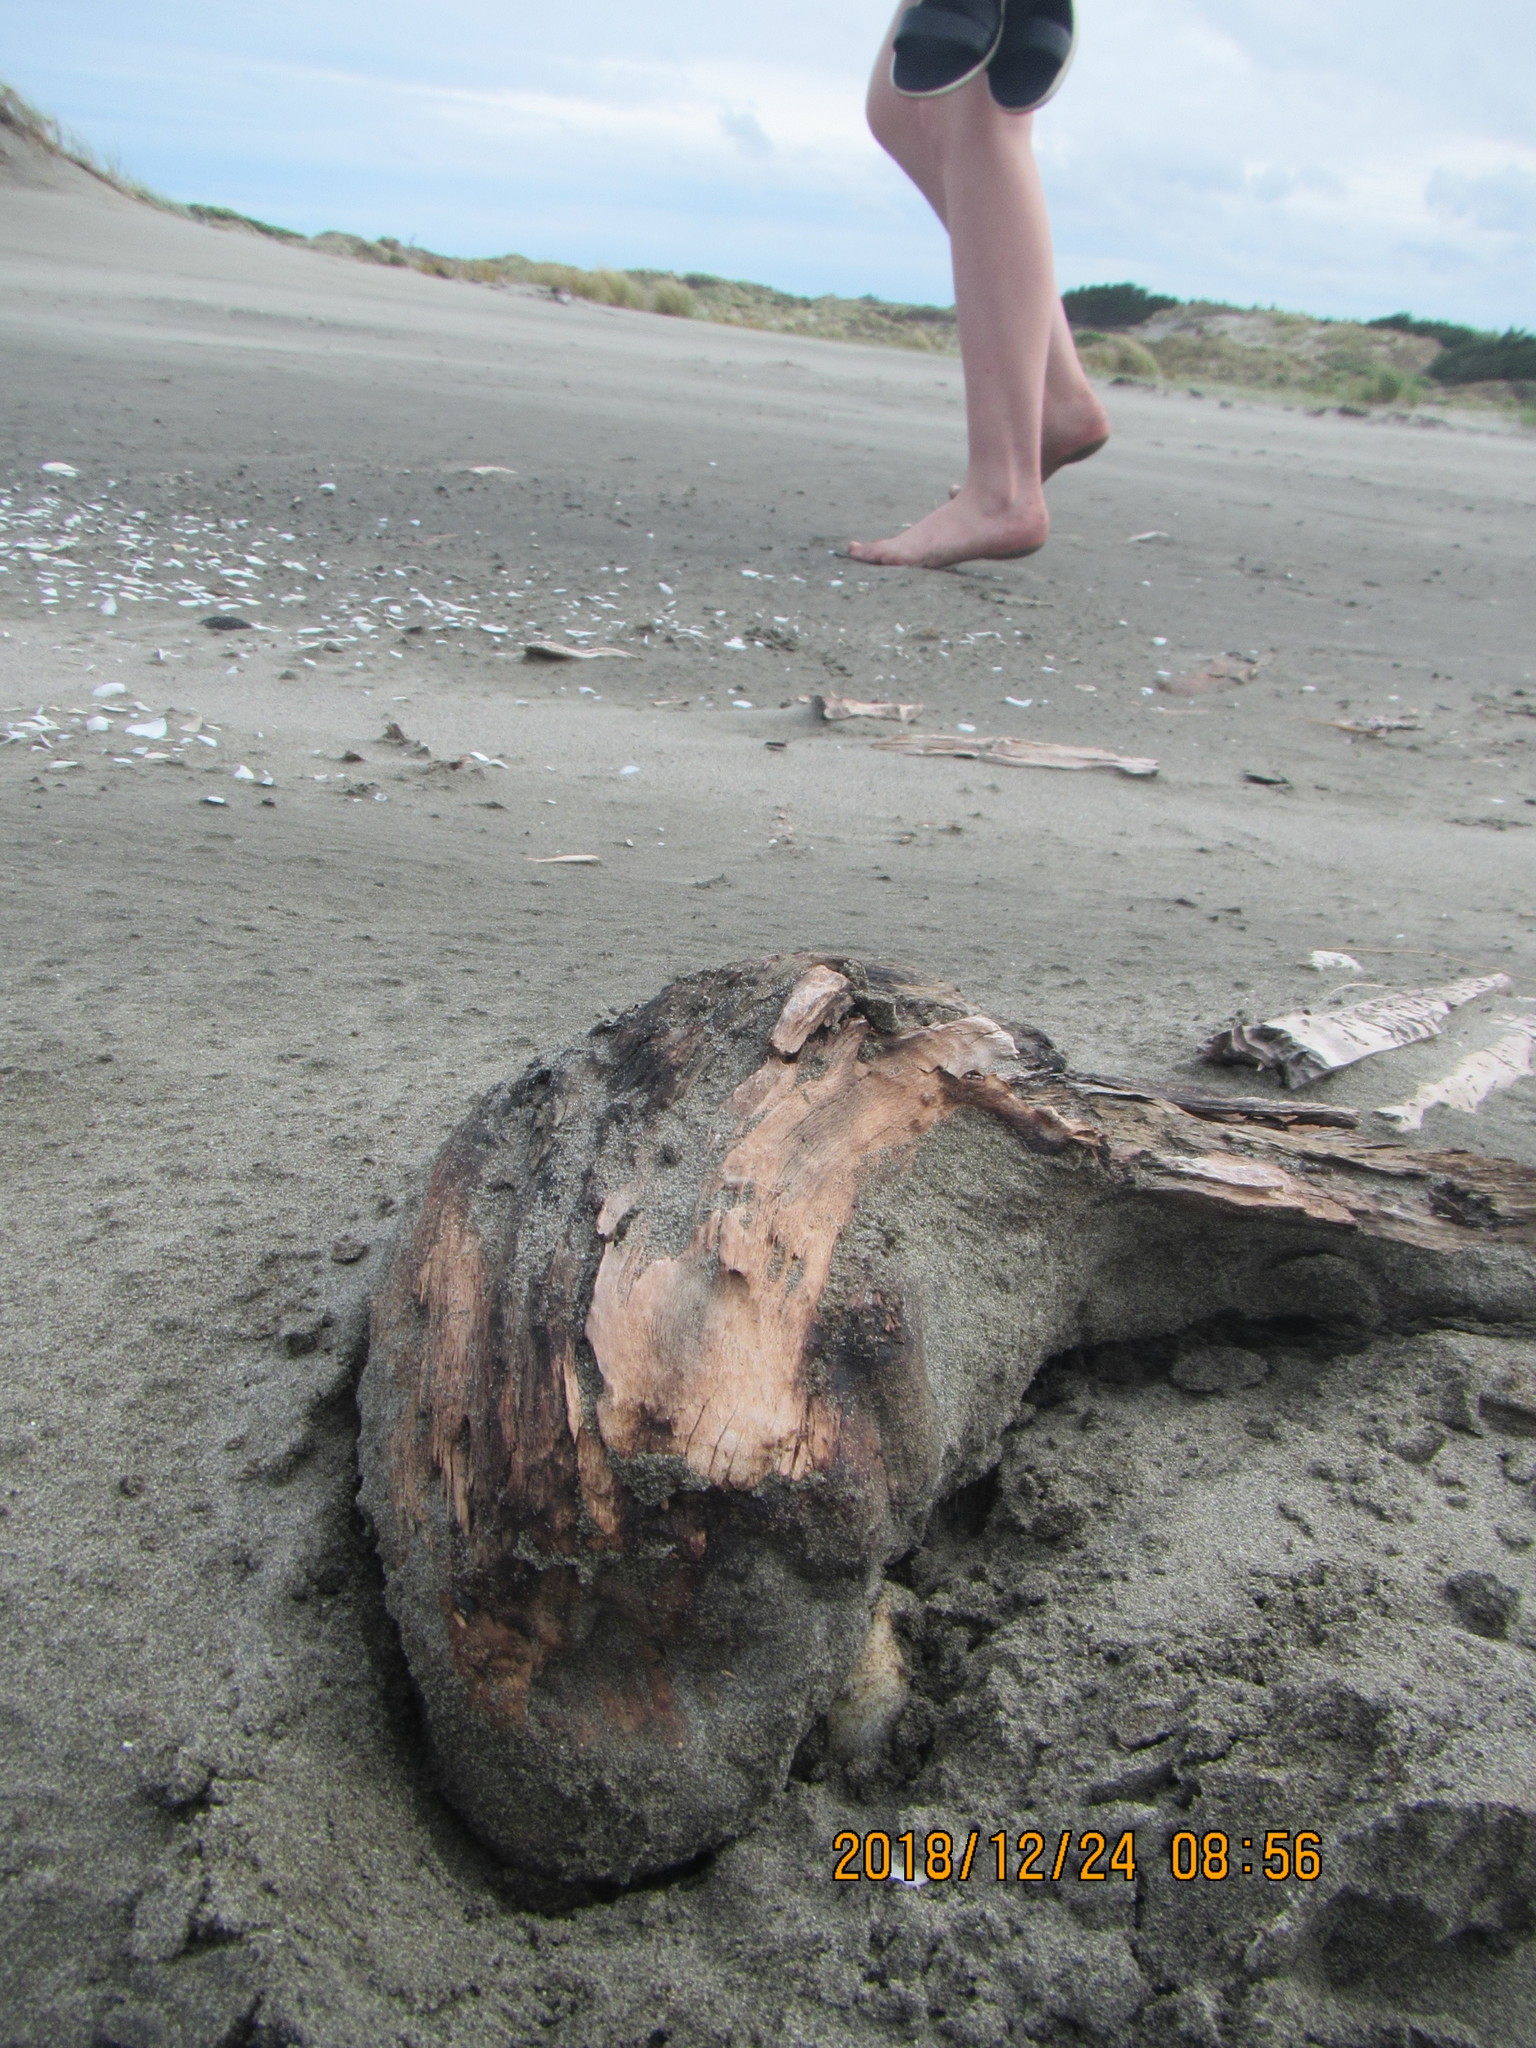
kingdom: Animalia
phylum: Arthropoda
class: Insecta
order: Coleoptera
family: Scarabaeidae
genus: Pericoptus
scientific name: Pericoptus truncatus
